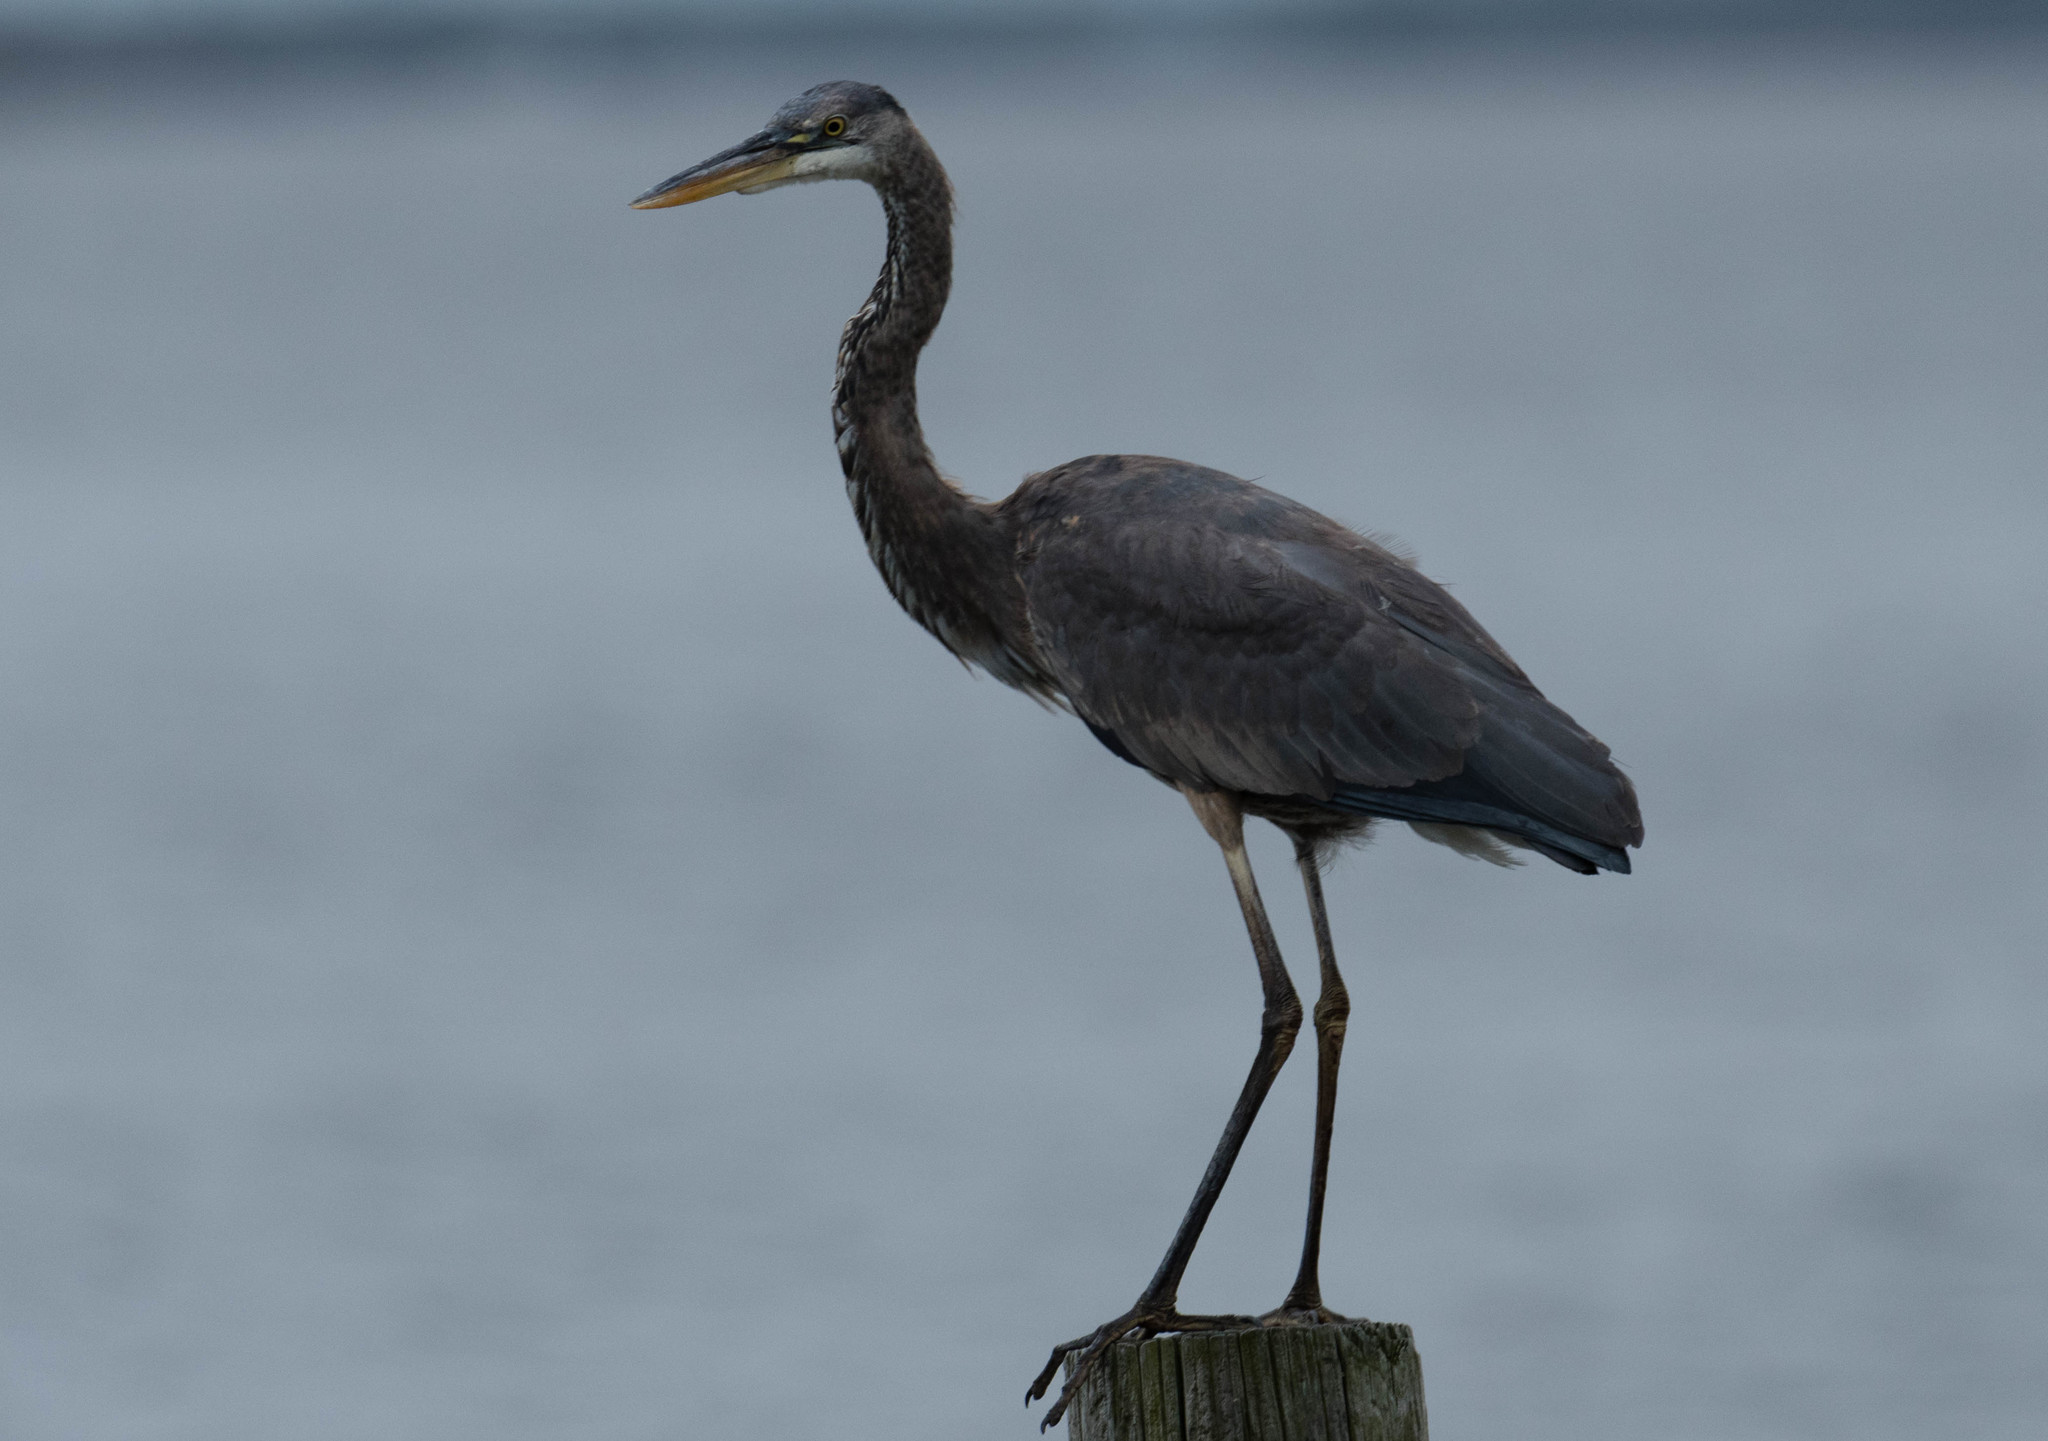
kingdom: Animalia
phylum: Chordata
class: Aves
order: Pelecaniformes
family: Ardeidae
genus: Ardea
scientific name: Ardea herodias
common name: Great blue heron
